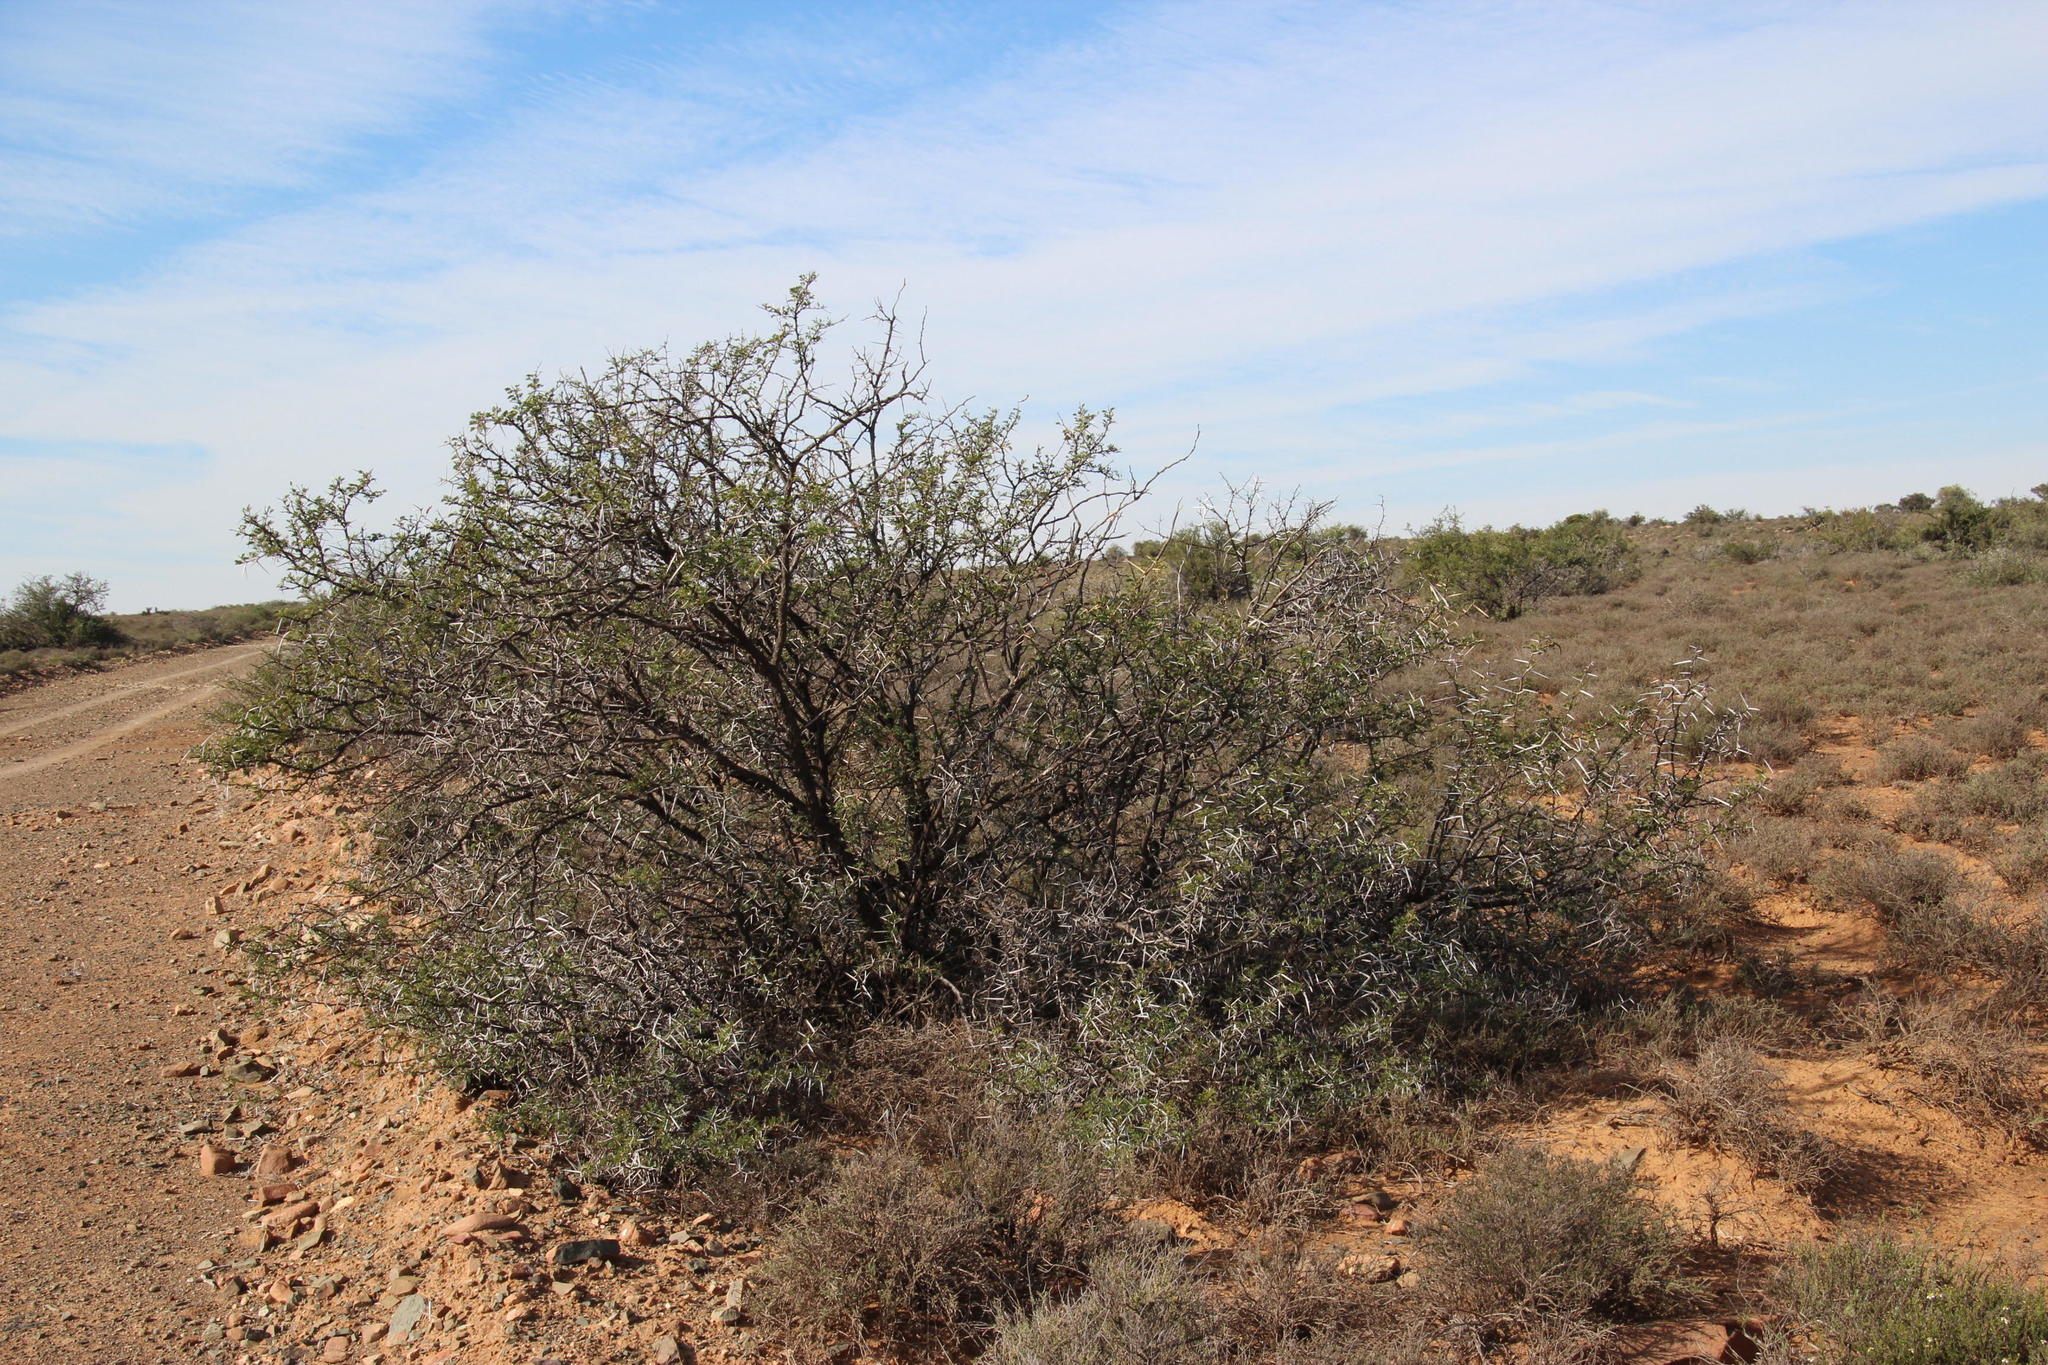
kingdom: Plantae
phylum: Tracheophyta
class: Magnoliopsida
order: Fabales
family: Fabaceae
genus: Vachellia
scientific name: Vachellia karroo
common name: Sweet thorn
